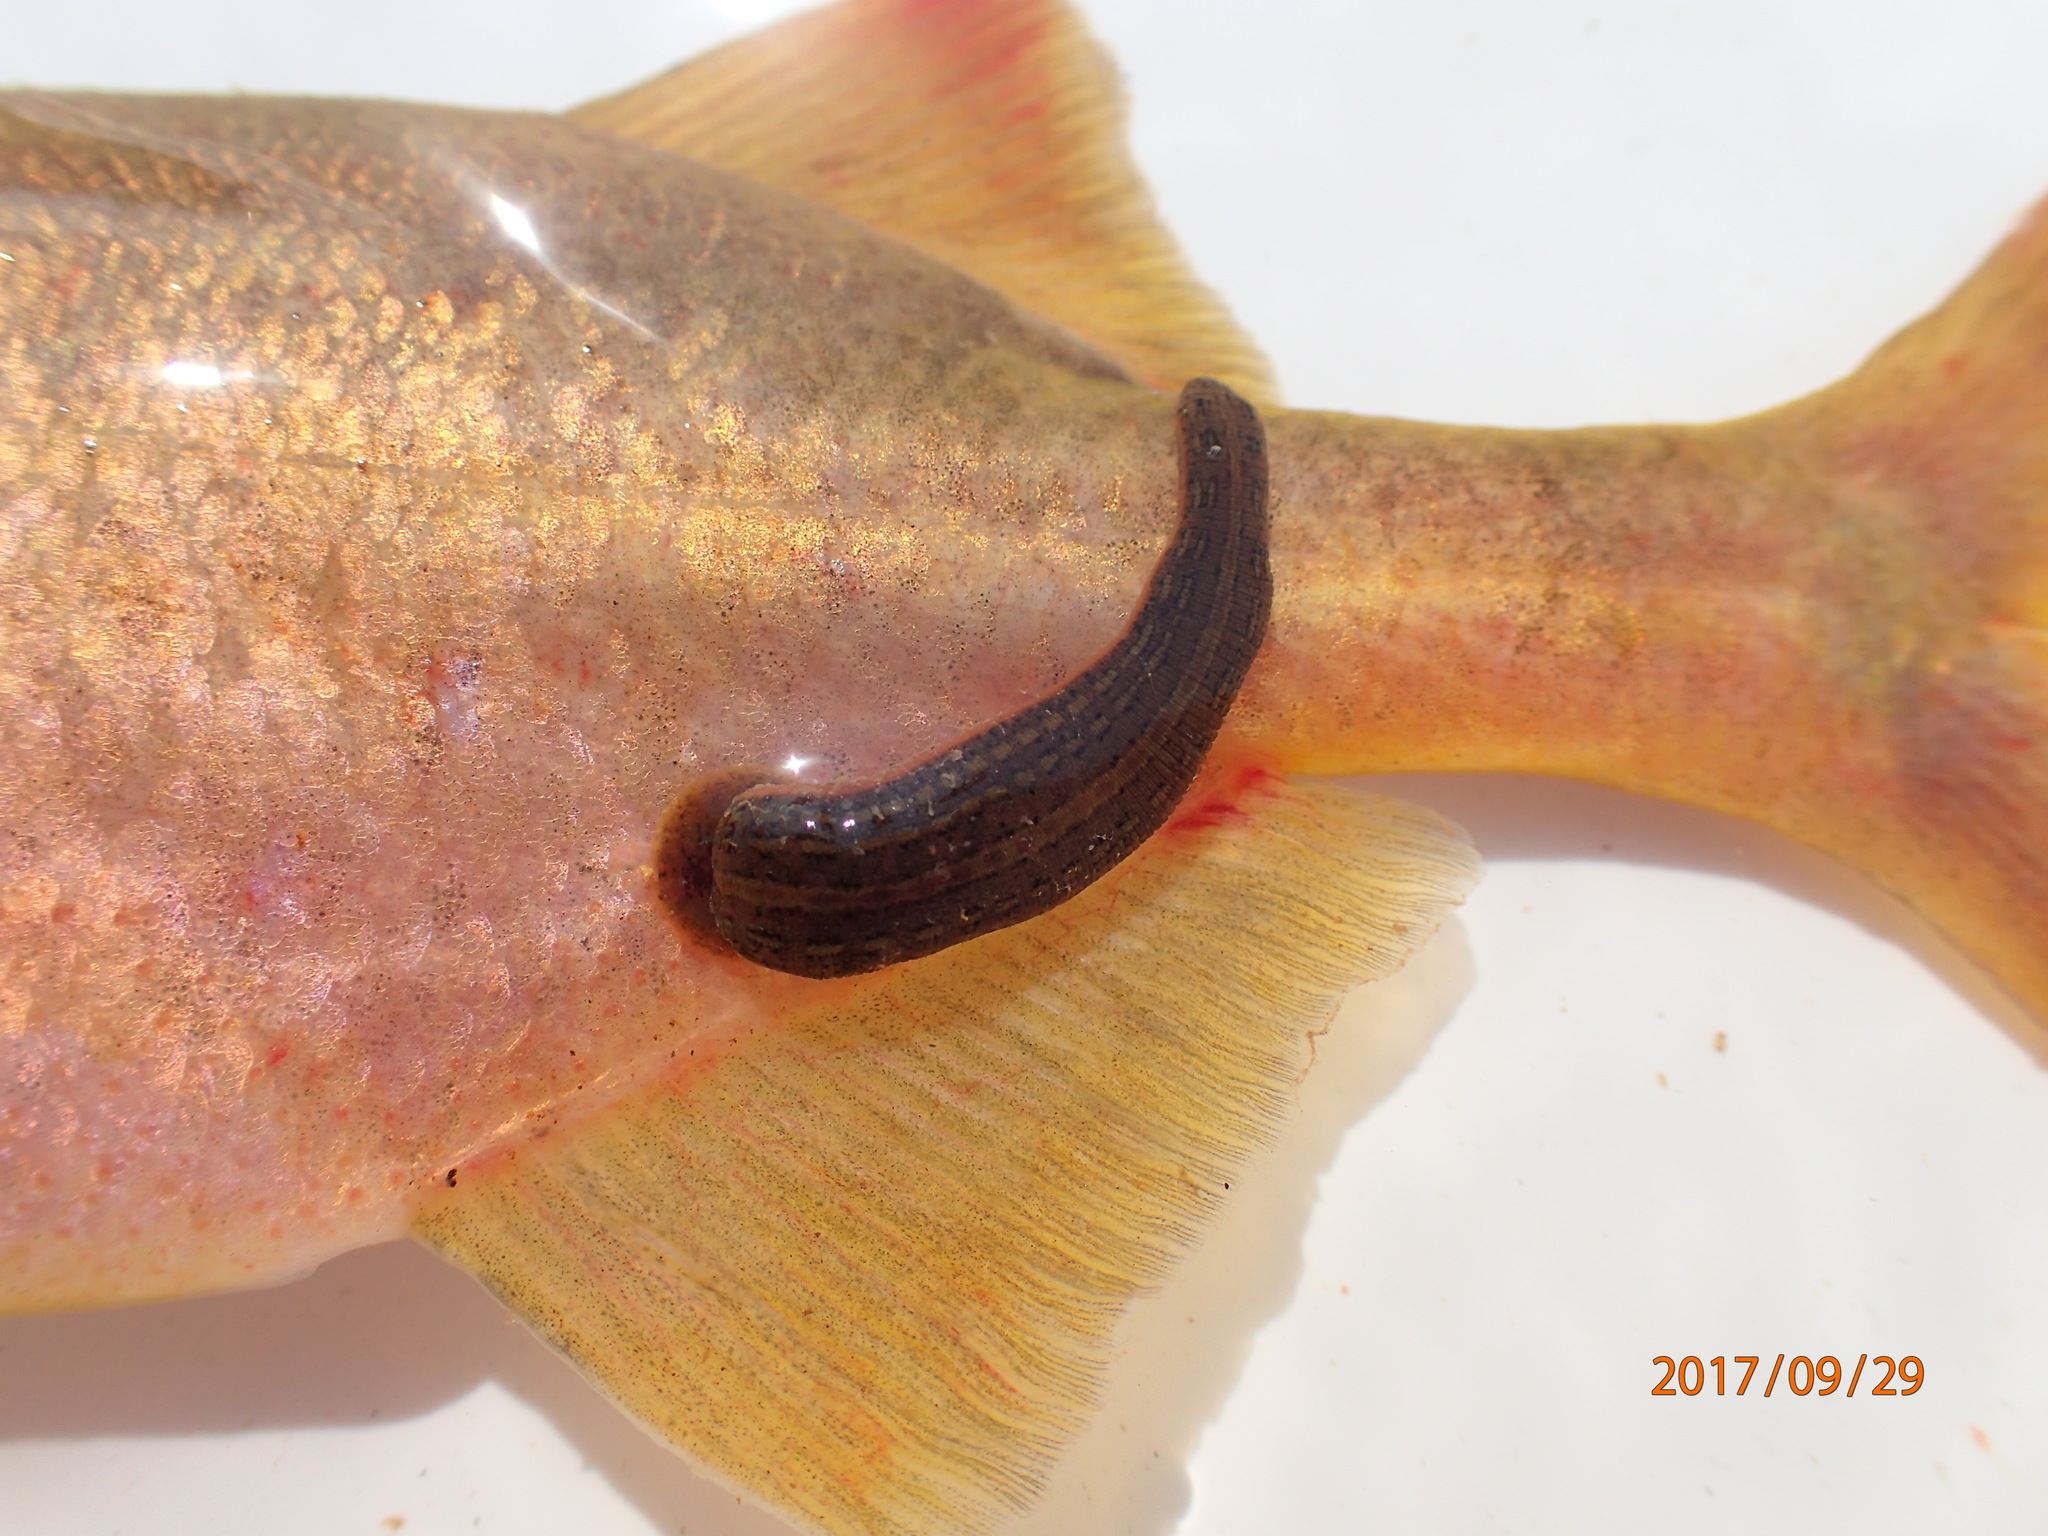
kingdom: Animalia
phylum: Chordata
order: Osteoglossiformes
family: Mormyridae
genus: Marcusenius
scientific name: Marcusenius caudisquamatus
